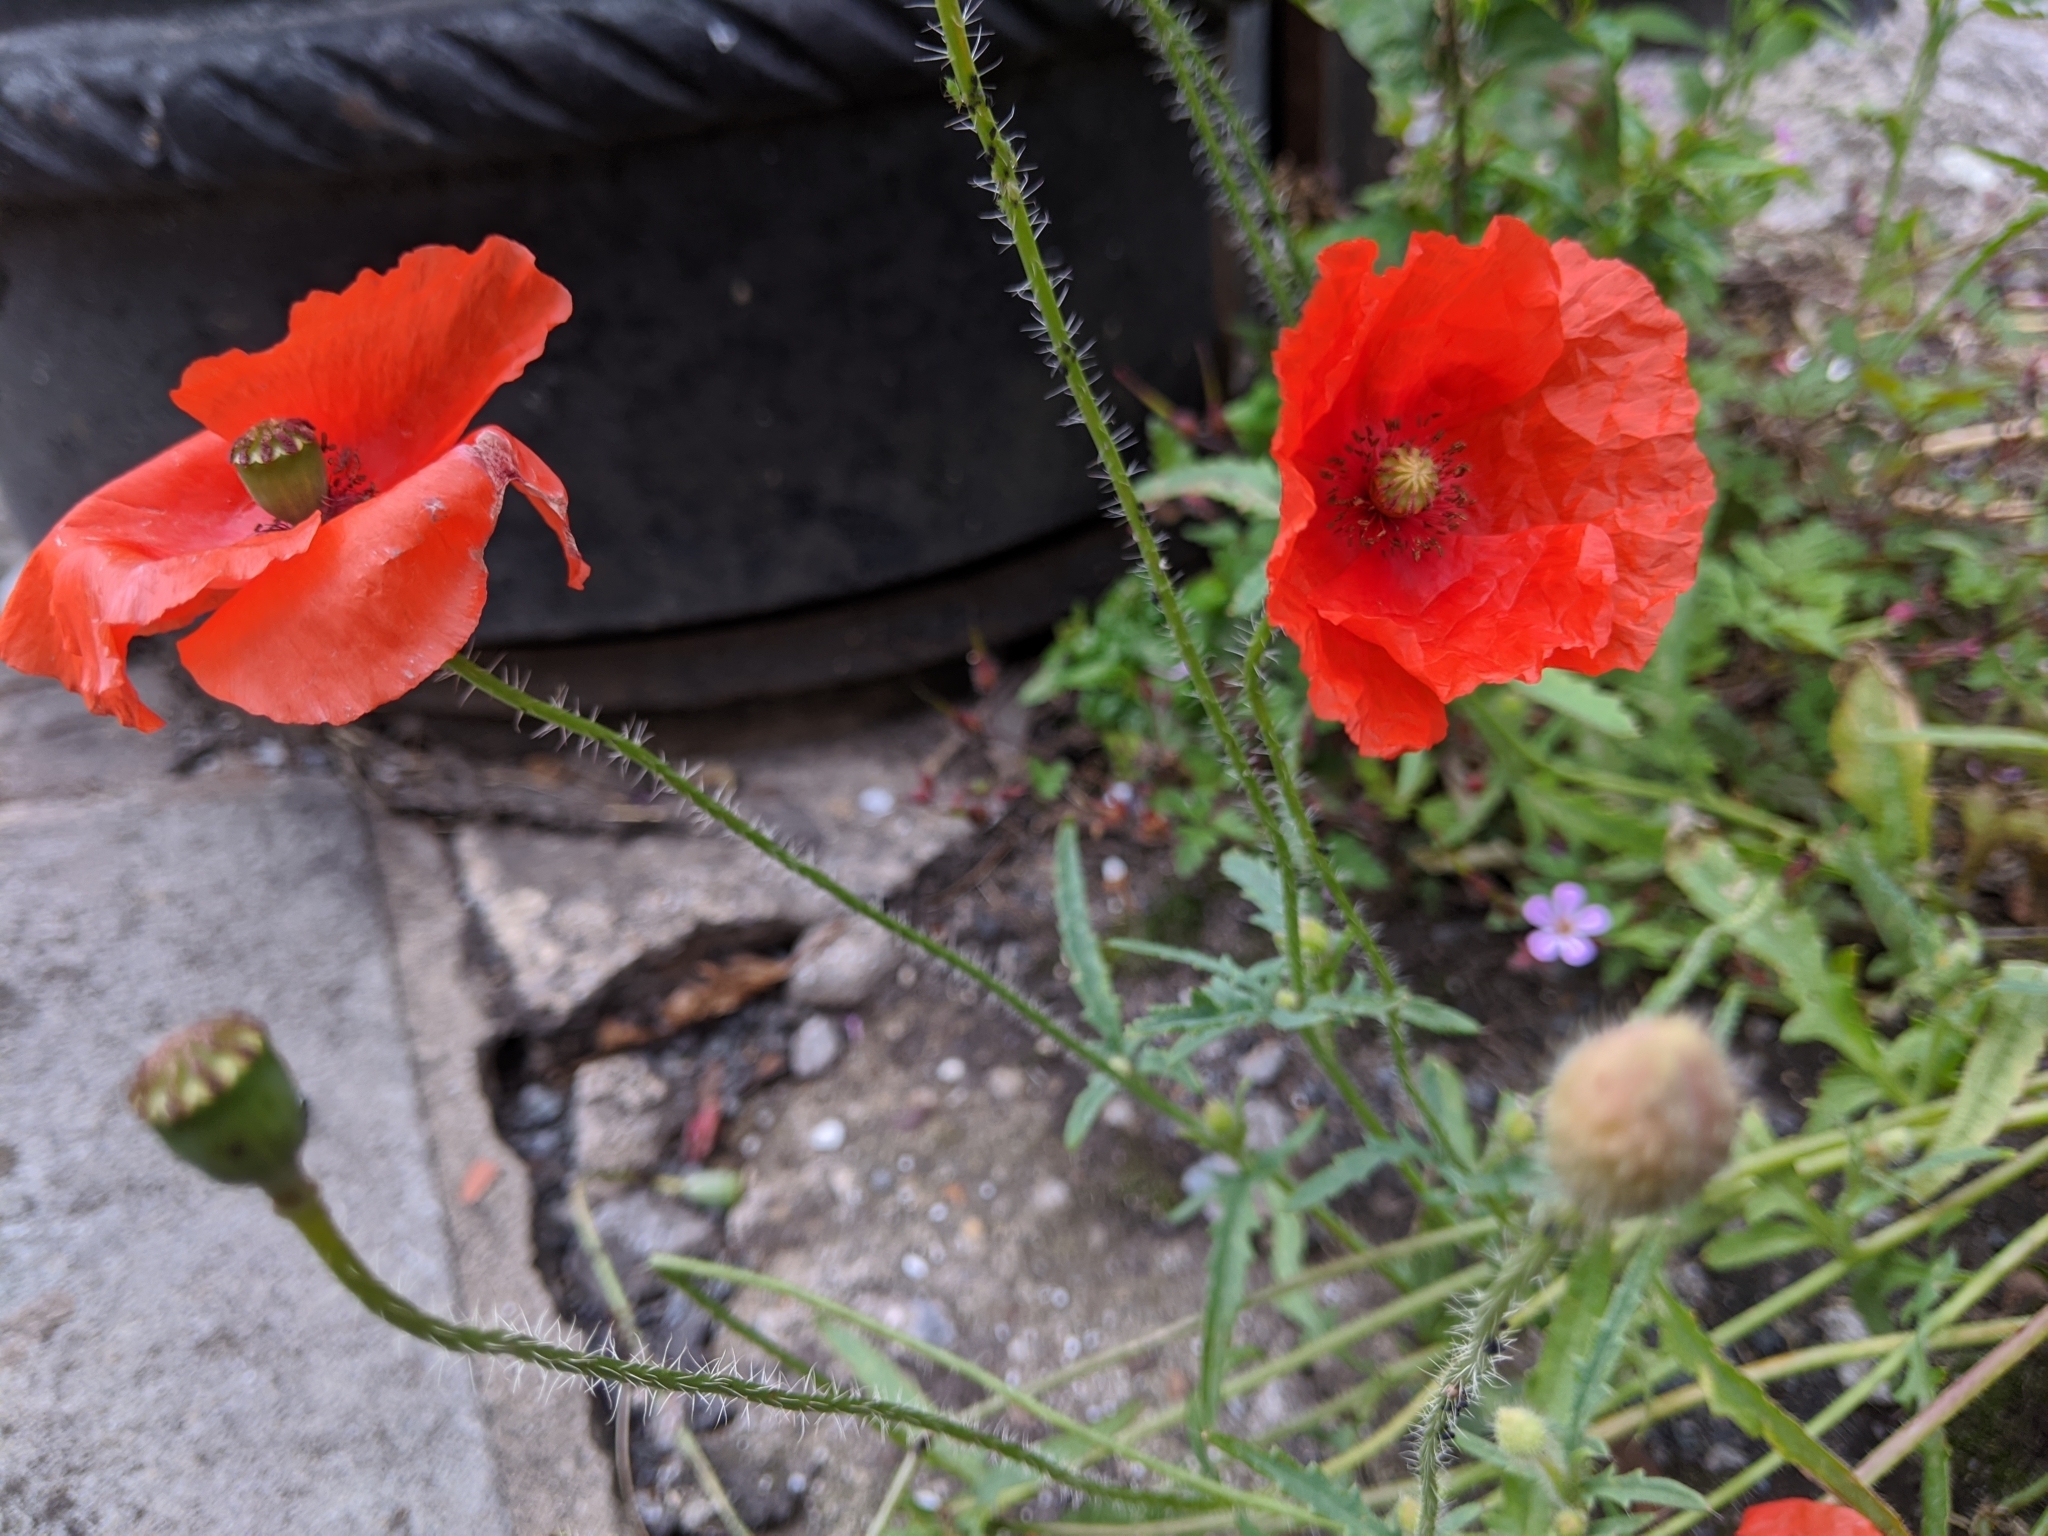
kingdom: Plantae
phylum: Tracheophyta
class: Magnoliopsida
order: Ranunculales
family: Papaveraceae
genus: Papaver
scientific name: Papaver rhoeas
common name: Corn poppy
